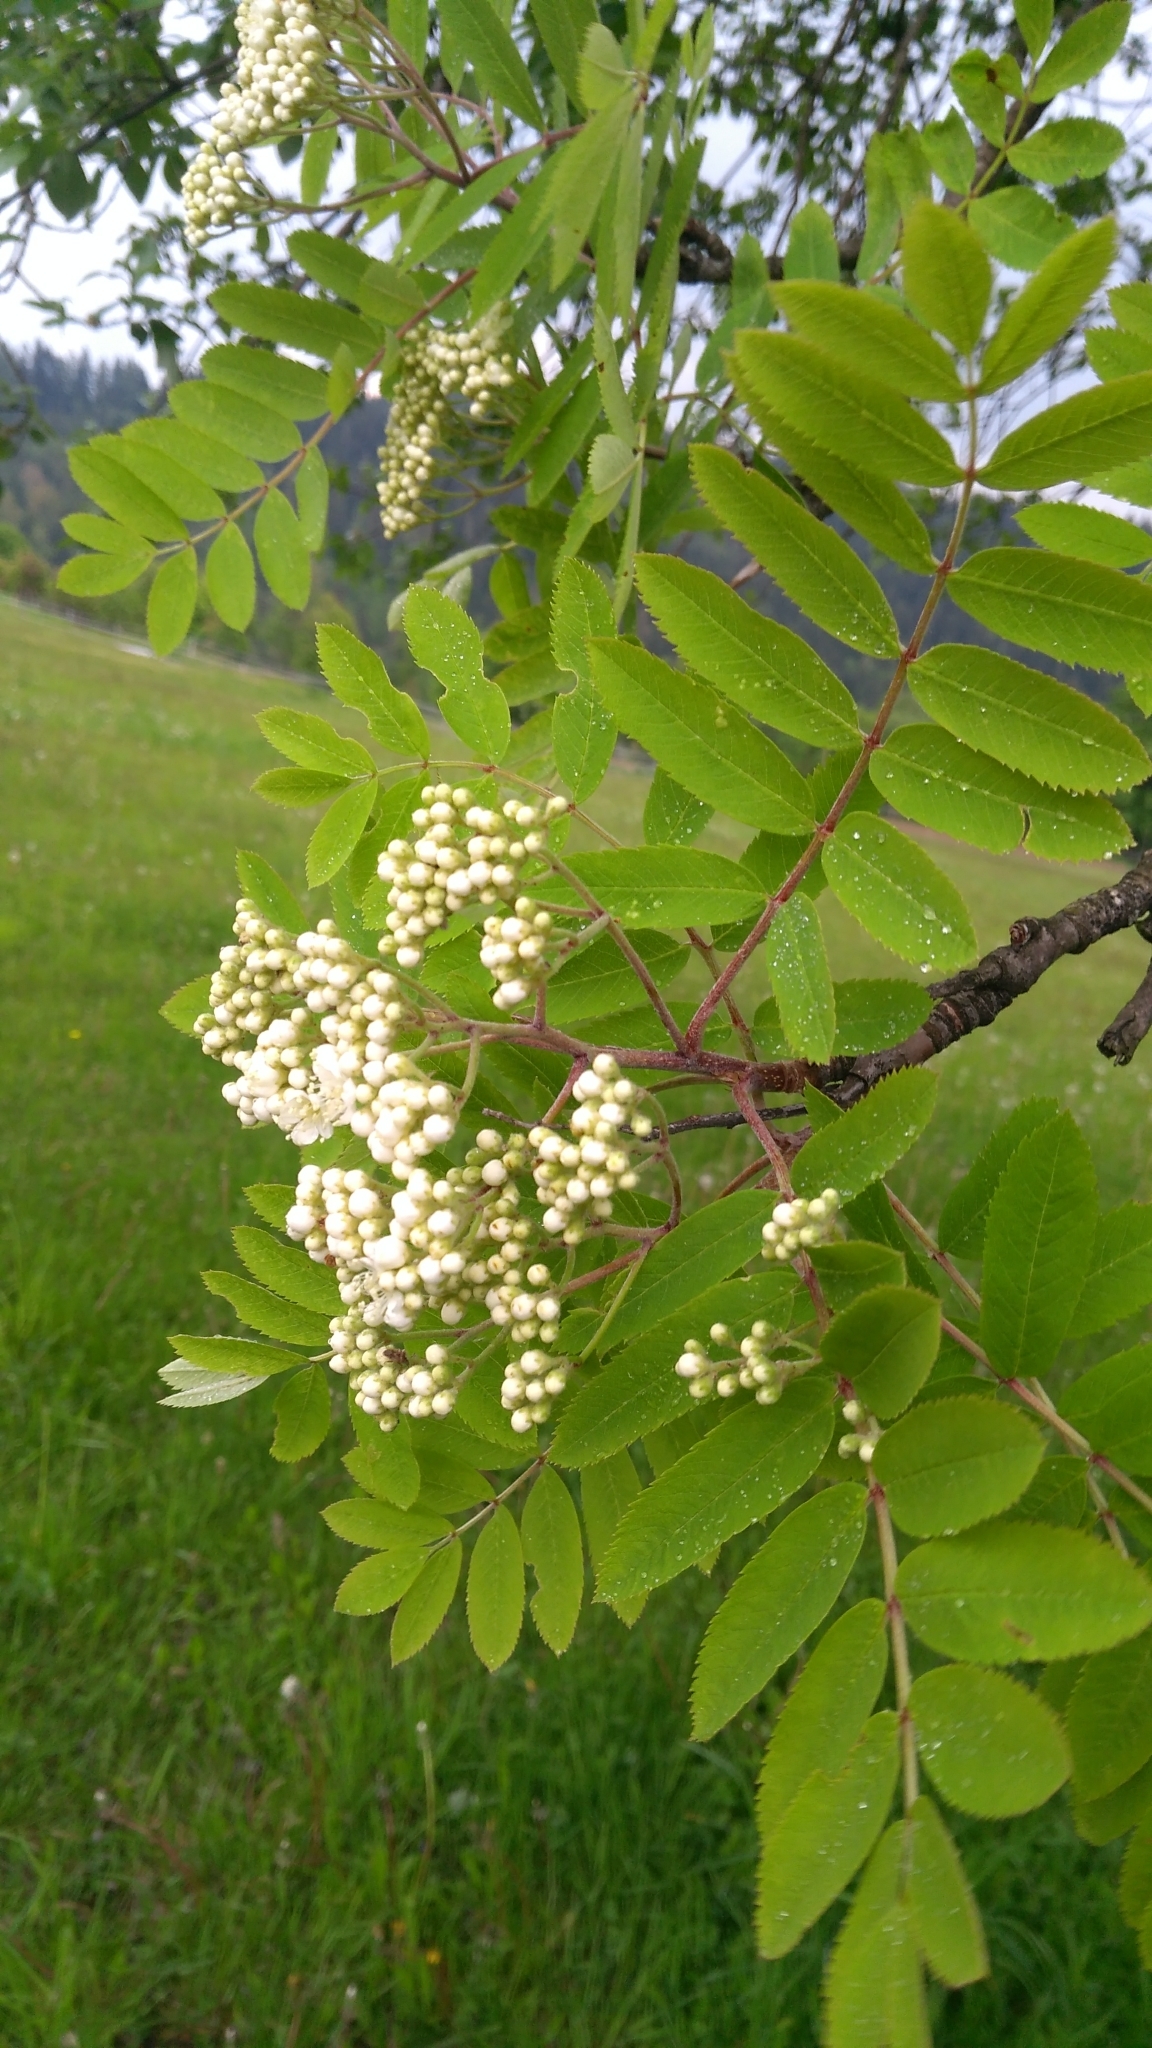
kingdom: Plantae
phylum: Tracheophyta
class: Magnoliopsida
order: Rosales
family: Rosaceae
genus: Sorbus
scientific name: Sorbus aucuparia
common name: Rowan
